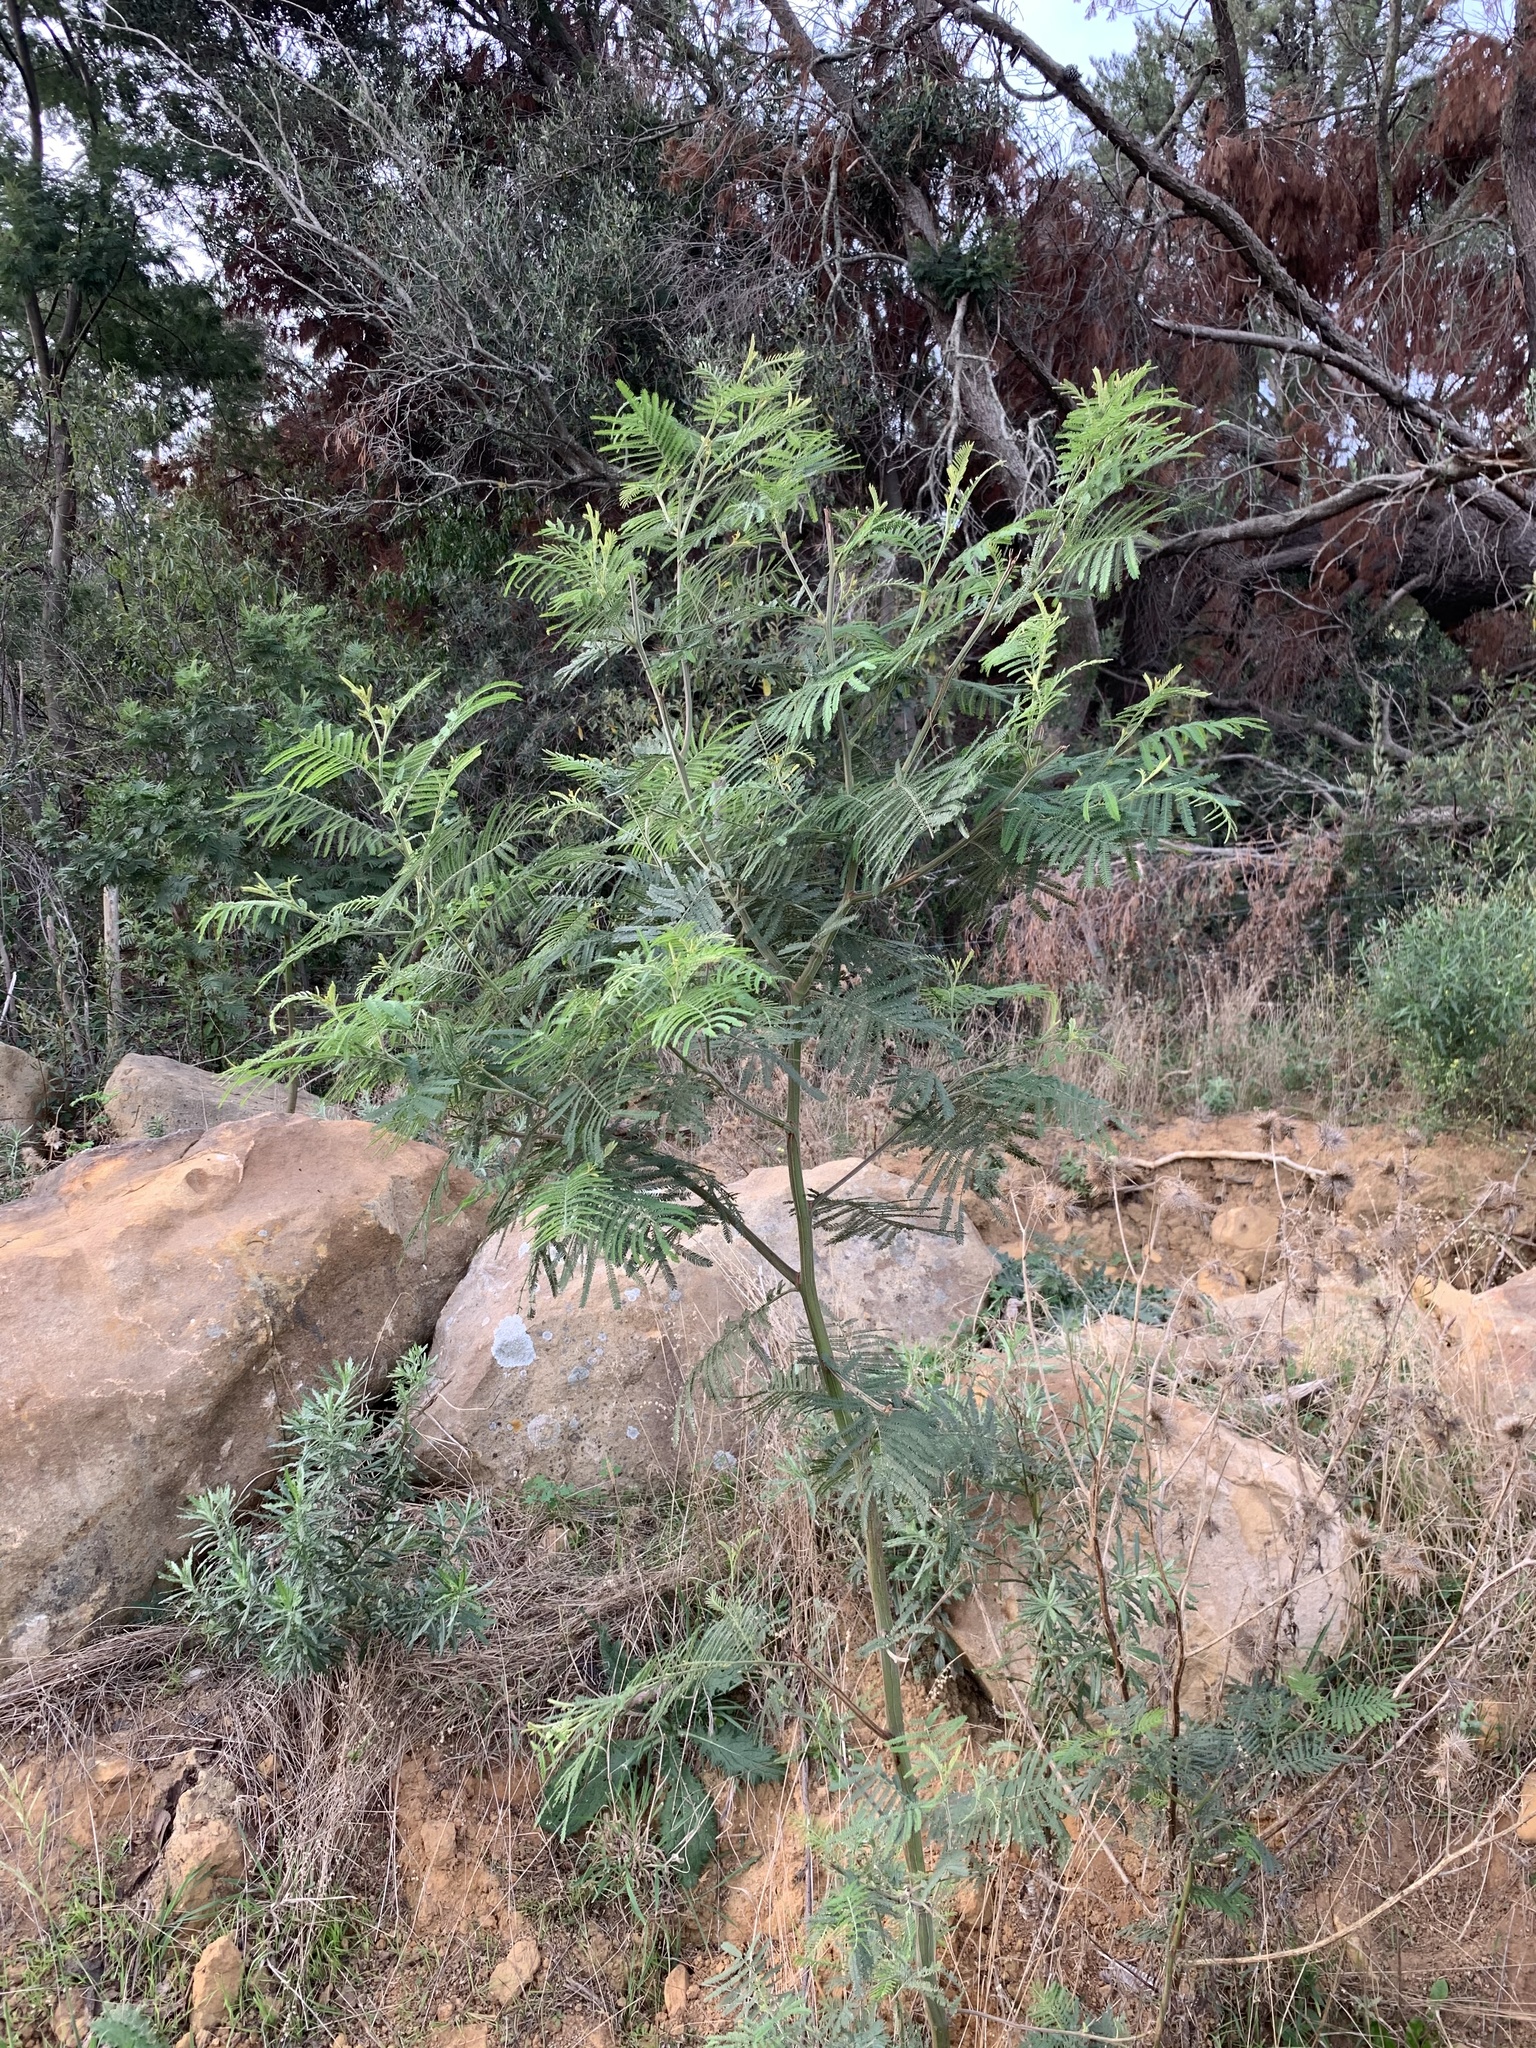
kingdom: Plantae
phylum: Tracheophyta
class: Magnoliopsida
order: Fabales
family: Fabaceae
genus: Acacia
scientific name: Acacia mearnsii
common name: Black wattle
